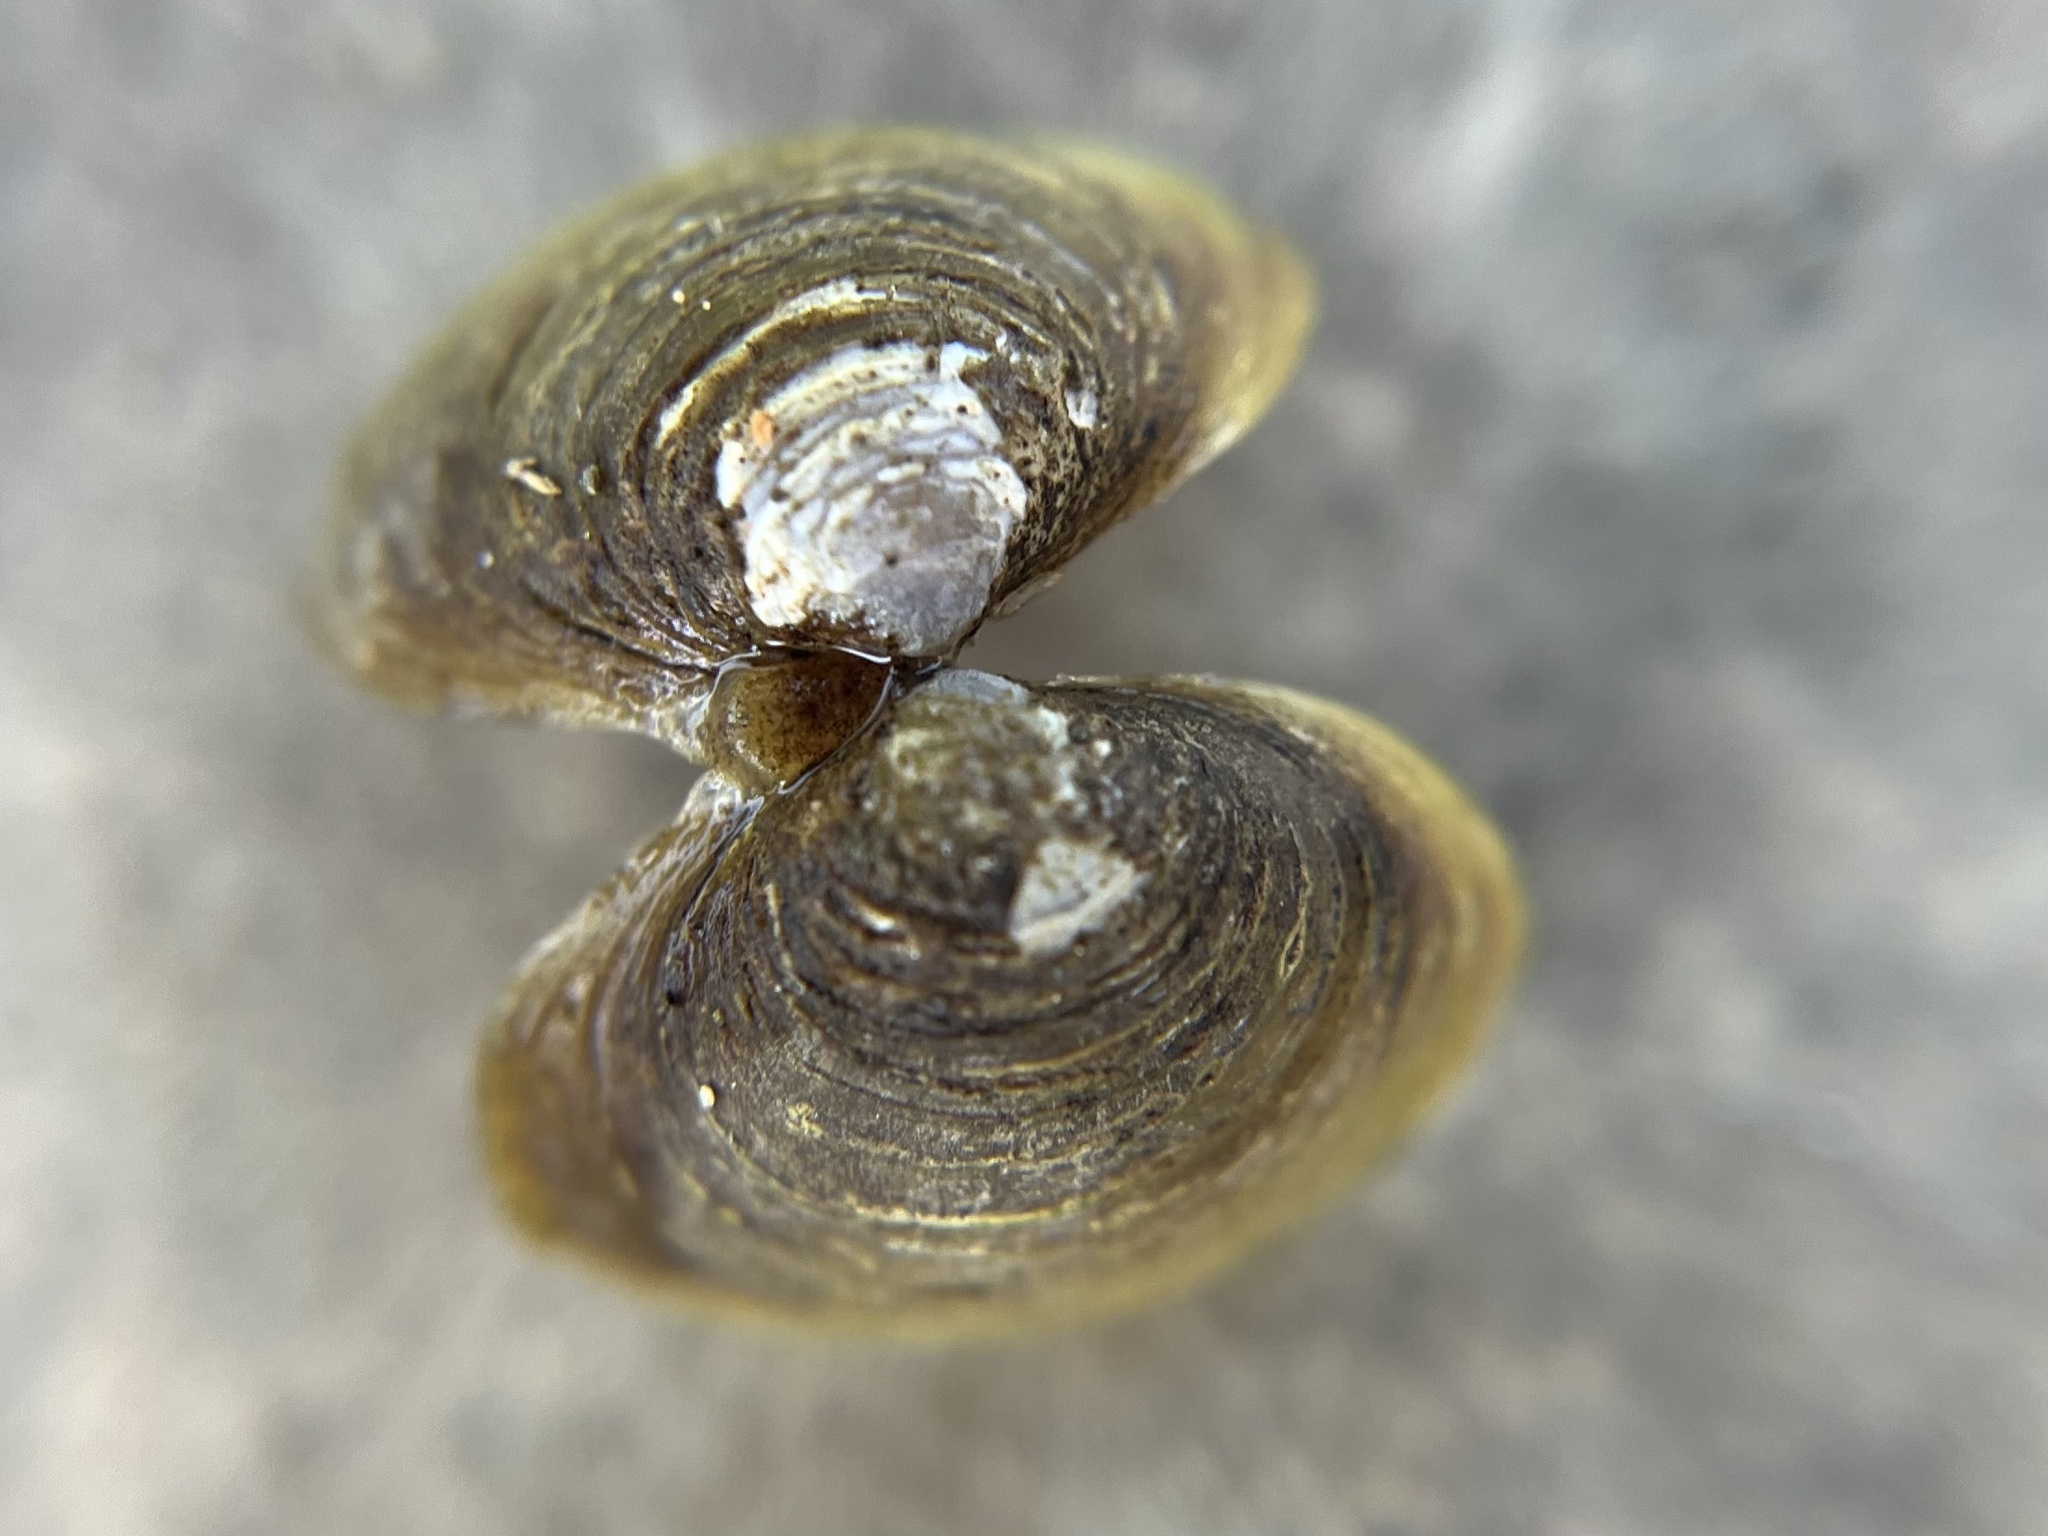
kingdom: Animalia
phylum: Mollusca
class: Bivalvia
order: Venerida
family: Cyrenidae
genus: Corbicula
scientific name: Corbicula fluminea
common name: Asian clam
